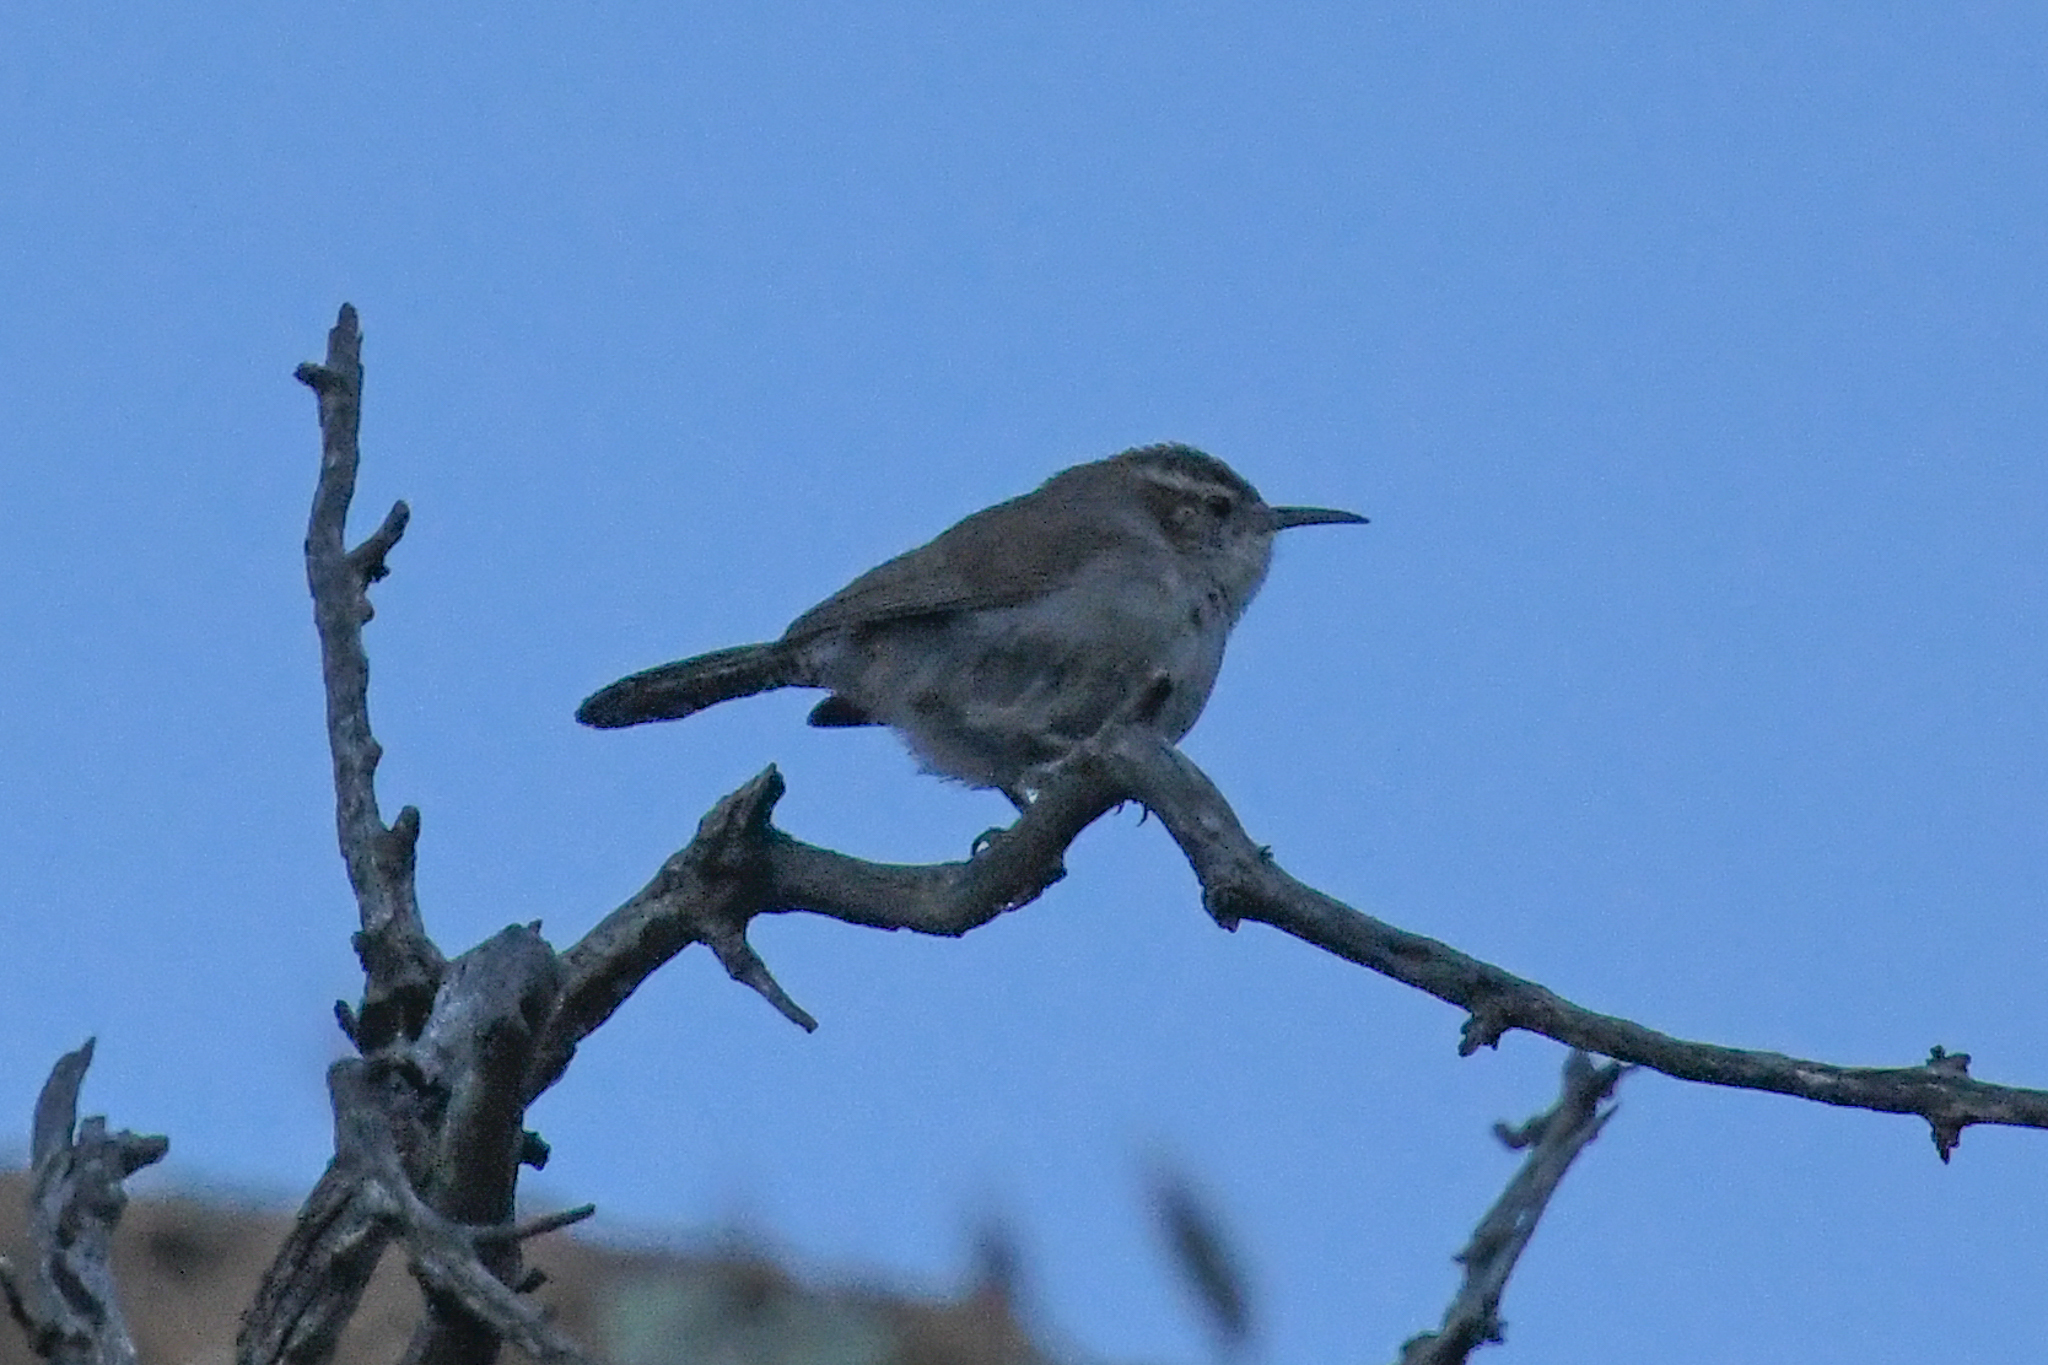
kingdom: Animalia
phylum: Chordata
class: Aves
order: Passeriformes
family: Troglodytidae
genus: Thryomanes
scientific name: Thryomanes bewickii
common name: Bewick's wren
